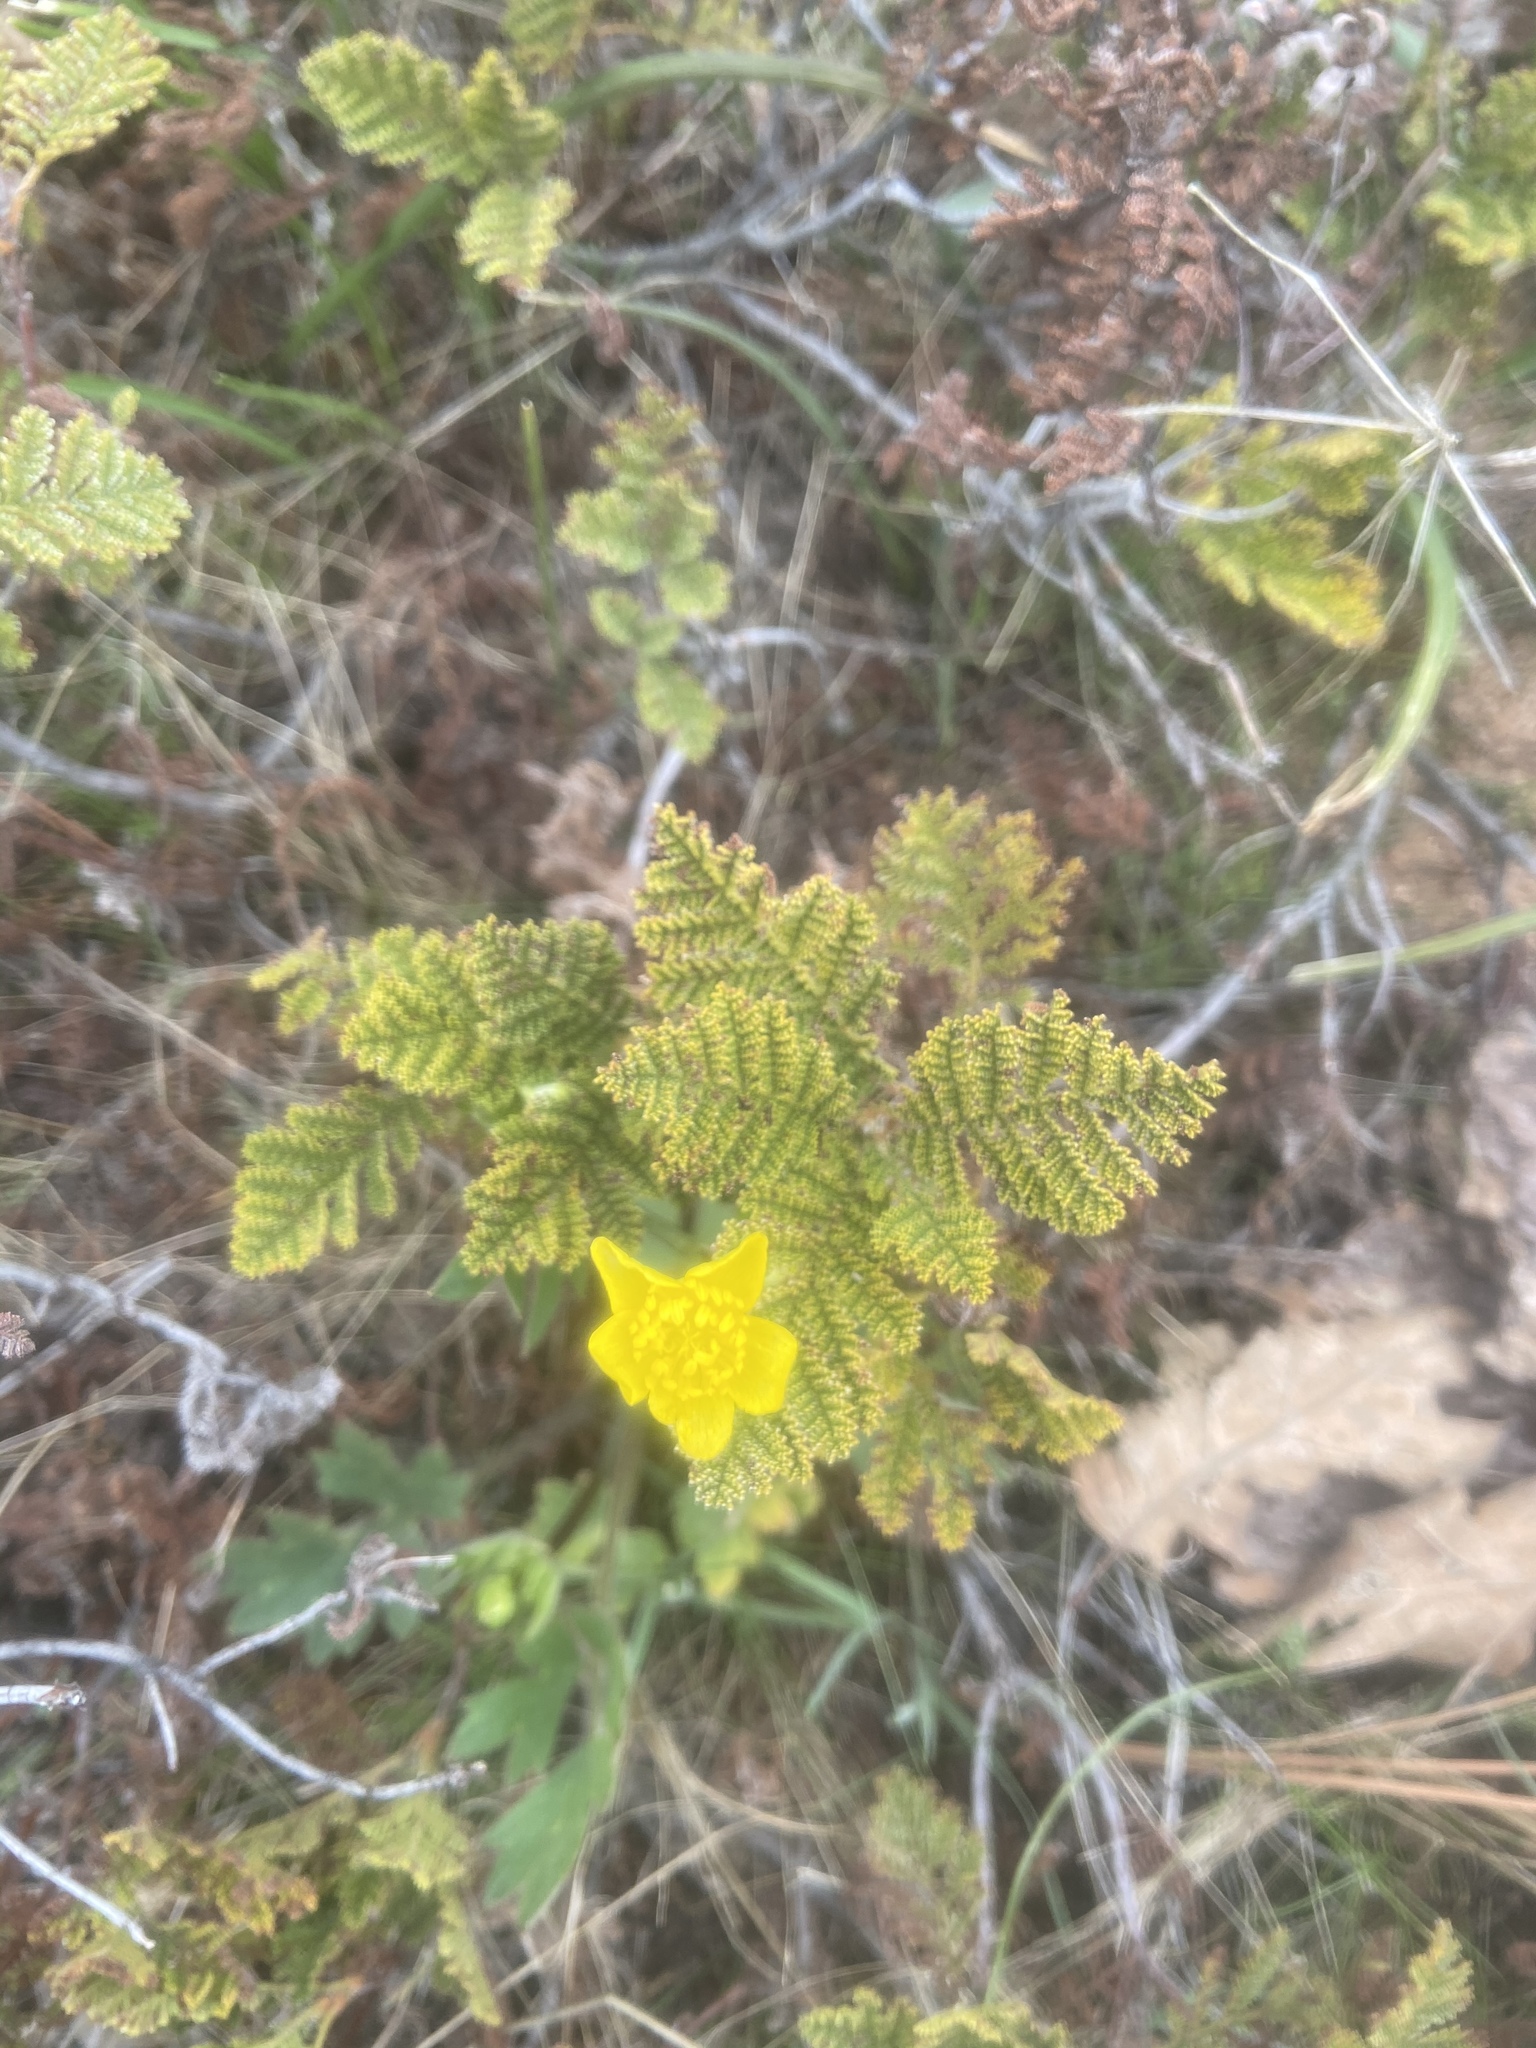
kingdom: Plantae
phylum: Tracheophyta
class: Magnoliopsida
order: Ranunculales
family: Ranunculaceae
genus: Ranunculus
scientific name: Ranunculus occidentalis
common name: Western buttercup
